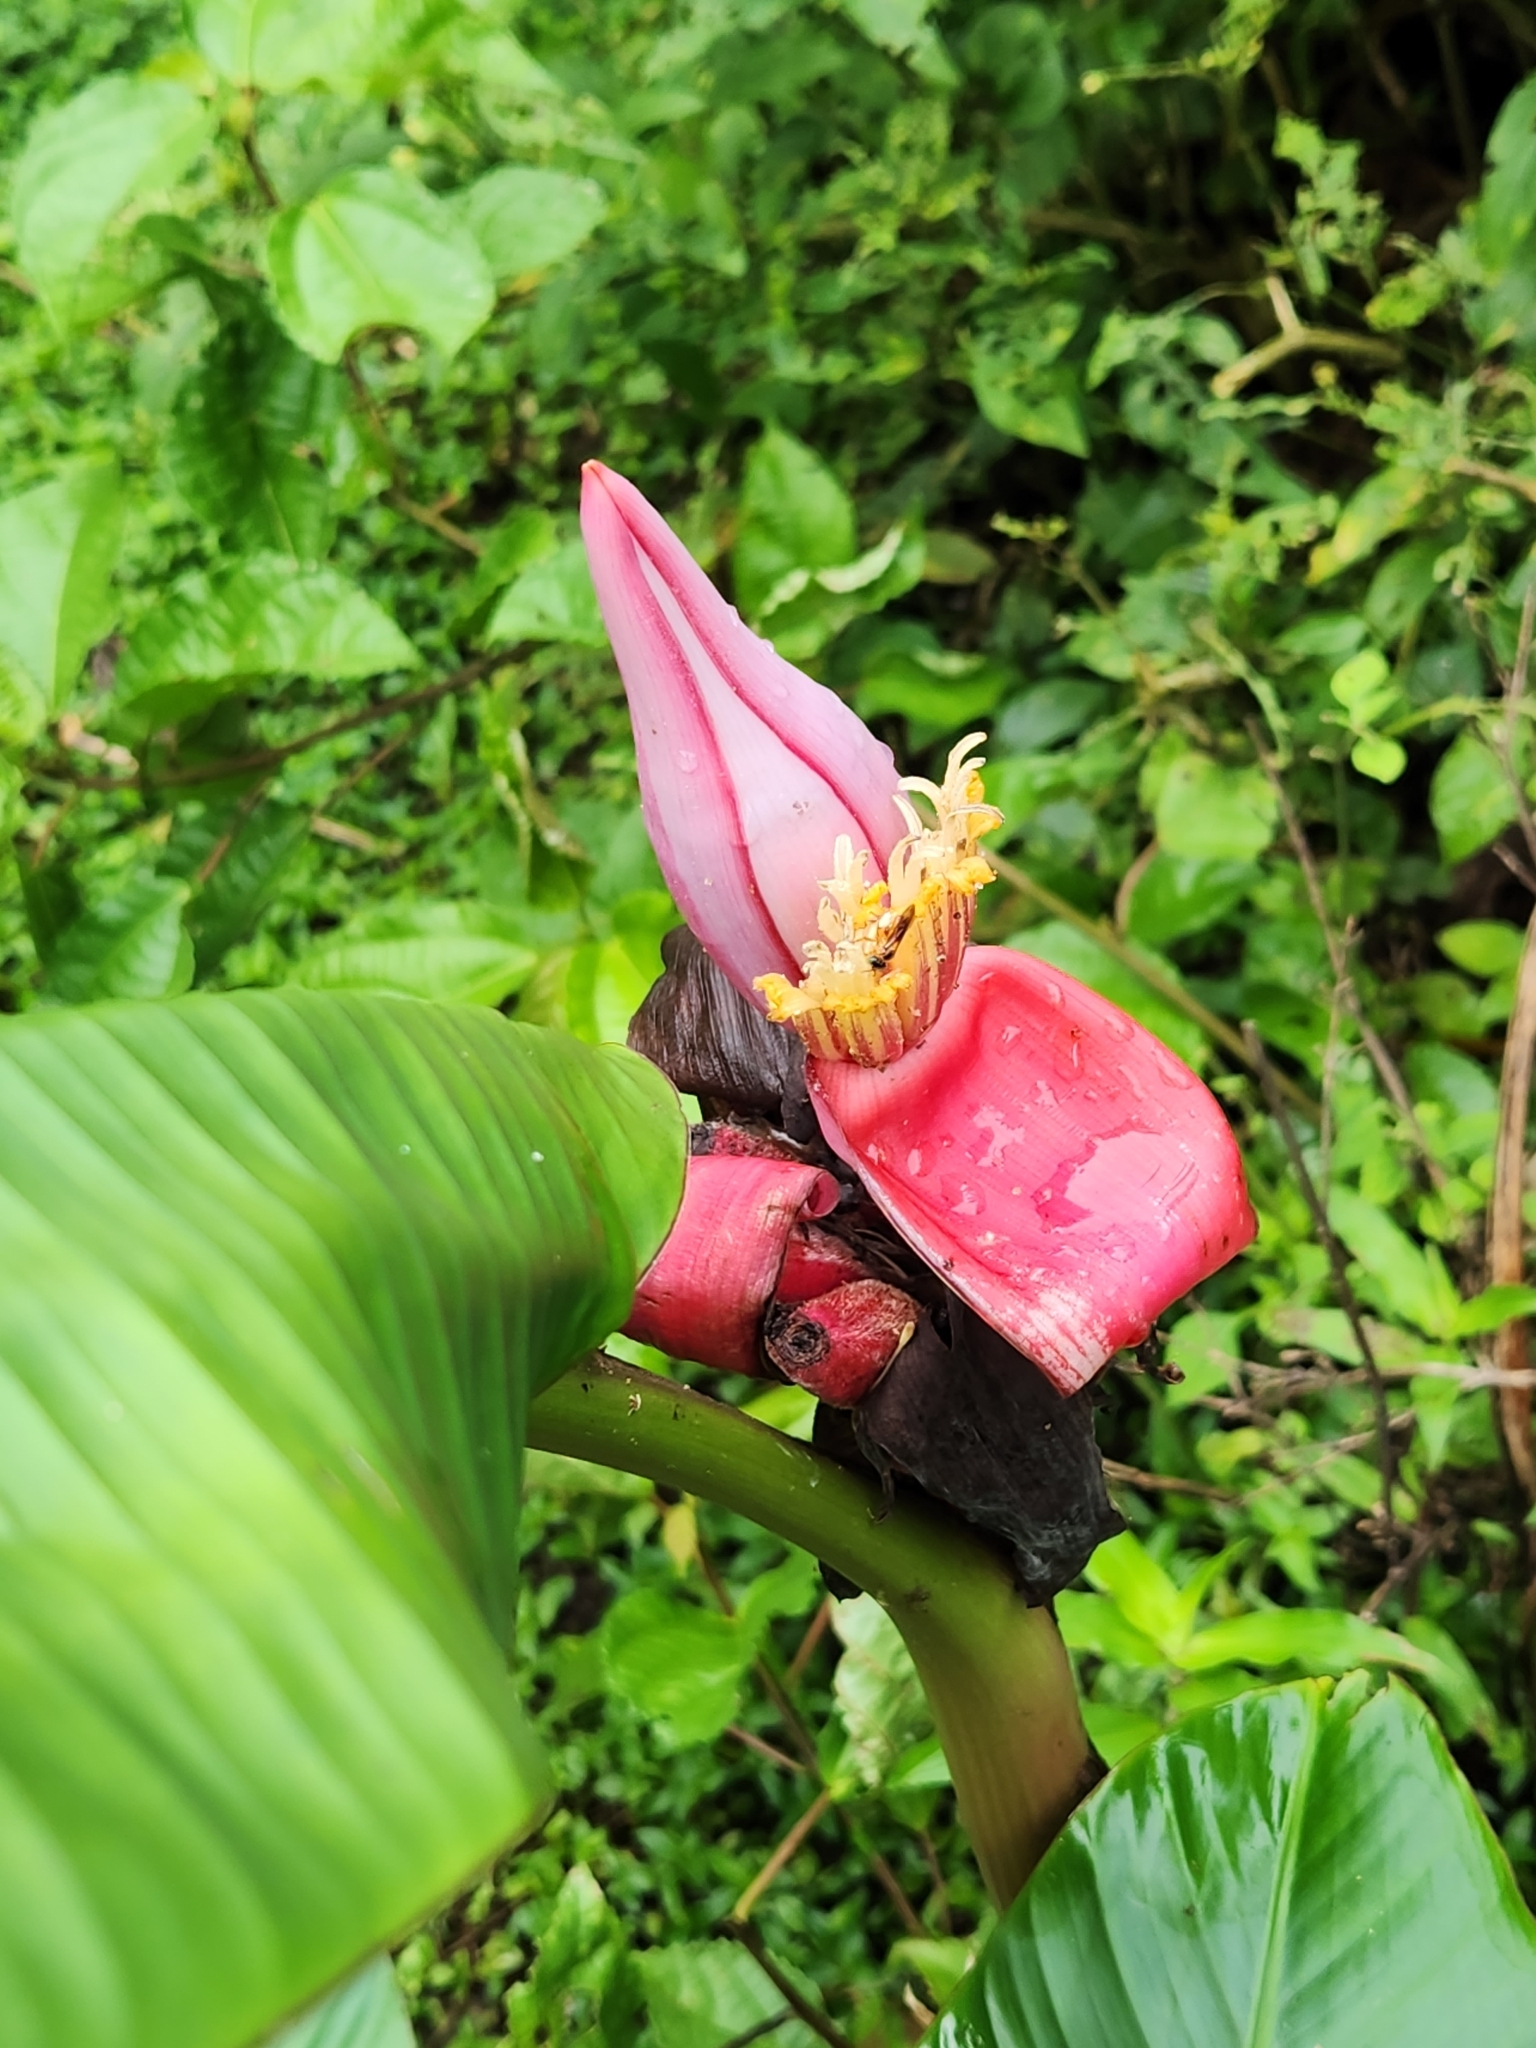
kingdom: Plantae
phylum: Tracheophyta
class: Liliopsida
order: Zingiberales
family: Musaceae
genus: Musa
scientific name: Musa velutina
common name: Pink velvet banana
